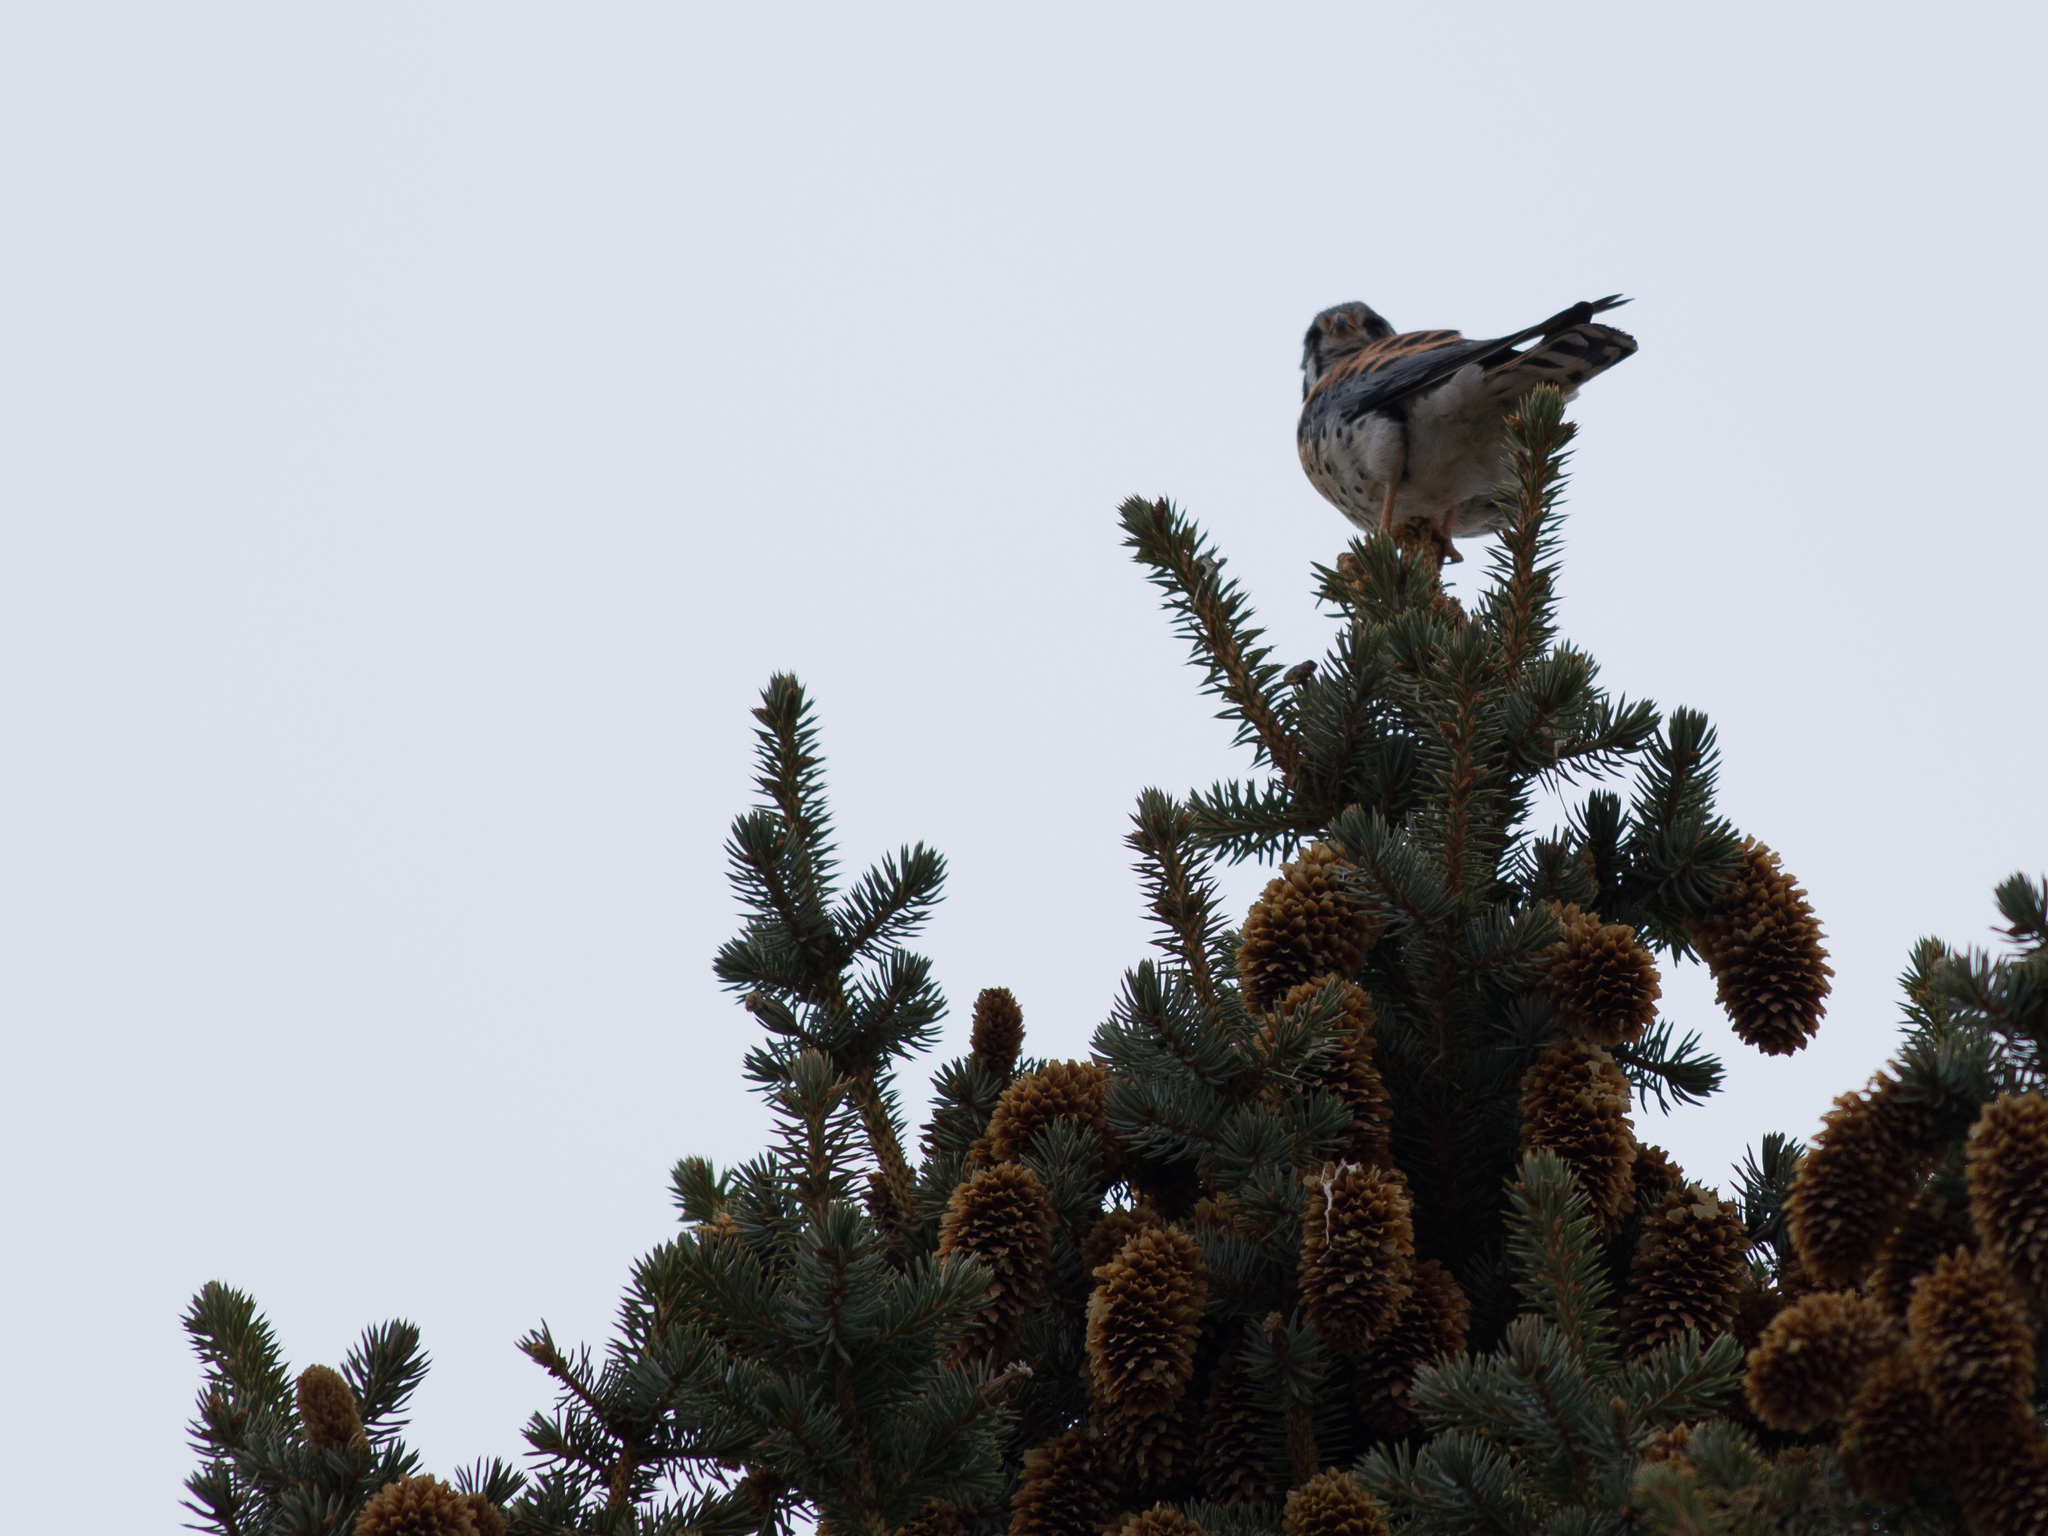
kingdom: Animalia
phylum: Chordata
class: Aves
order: Falconiformes
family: Falconidae
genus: Falco
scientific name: Falco sparverius
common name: American kestrel
